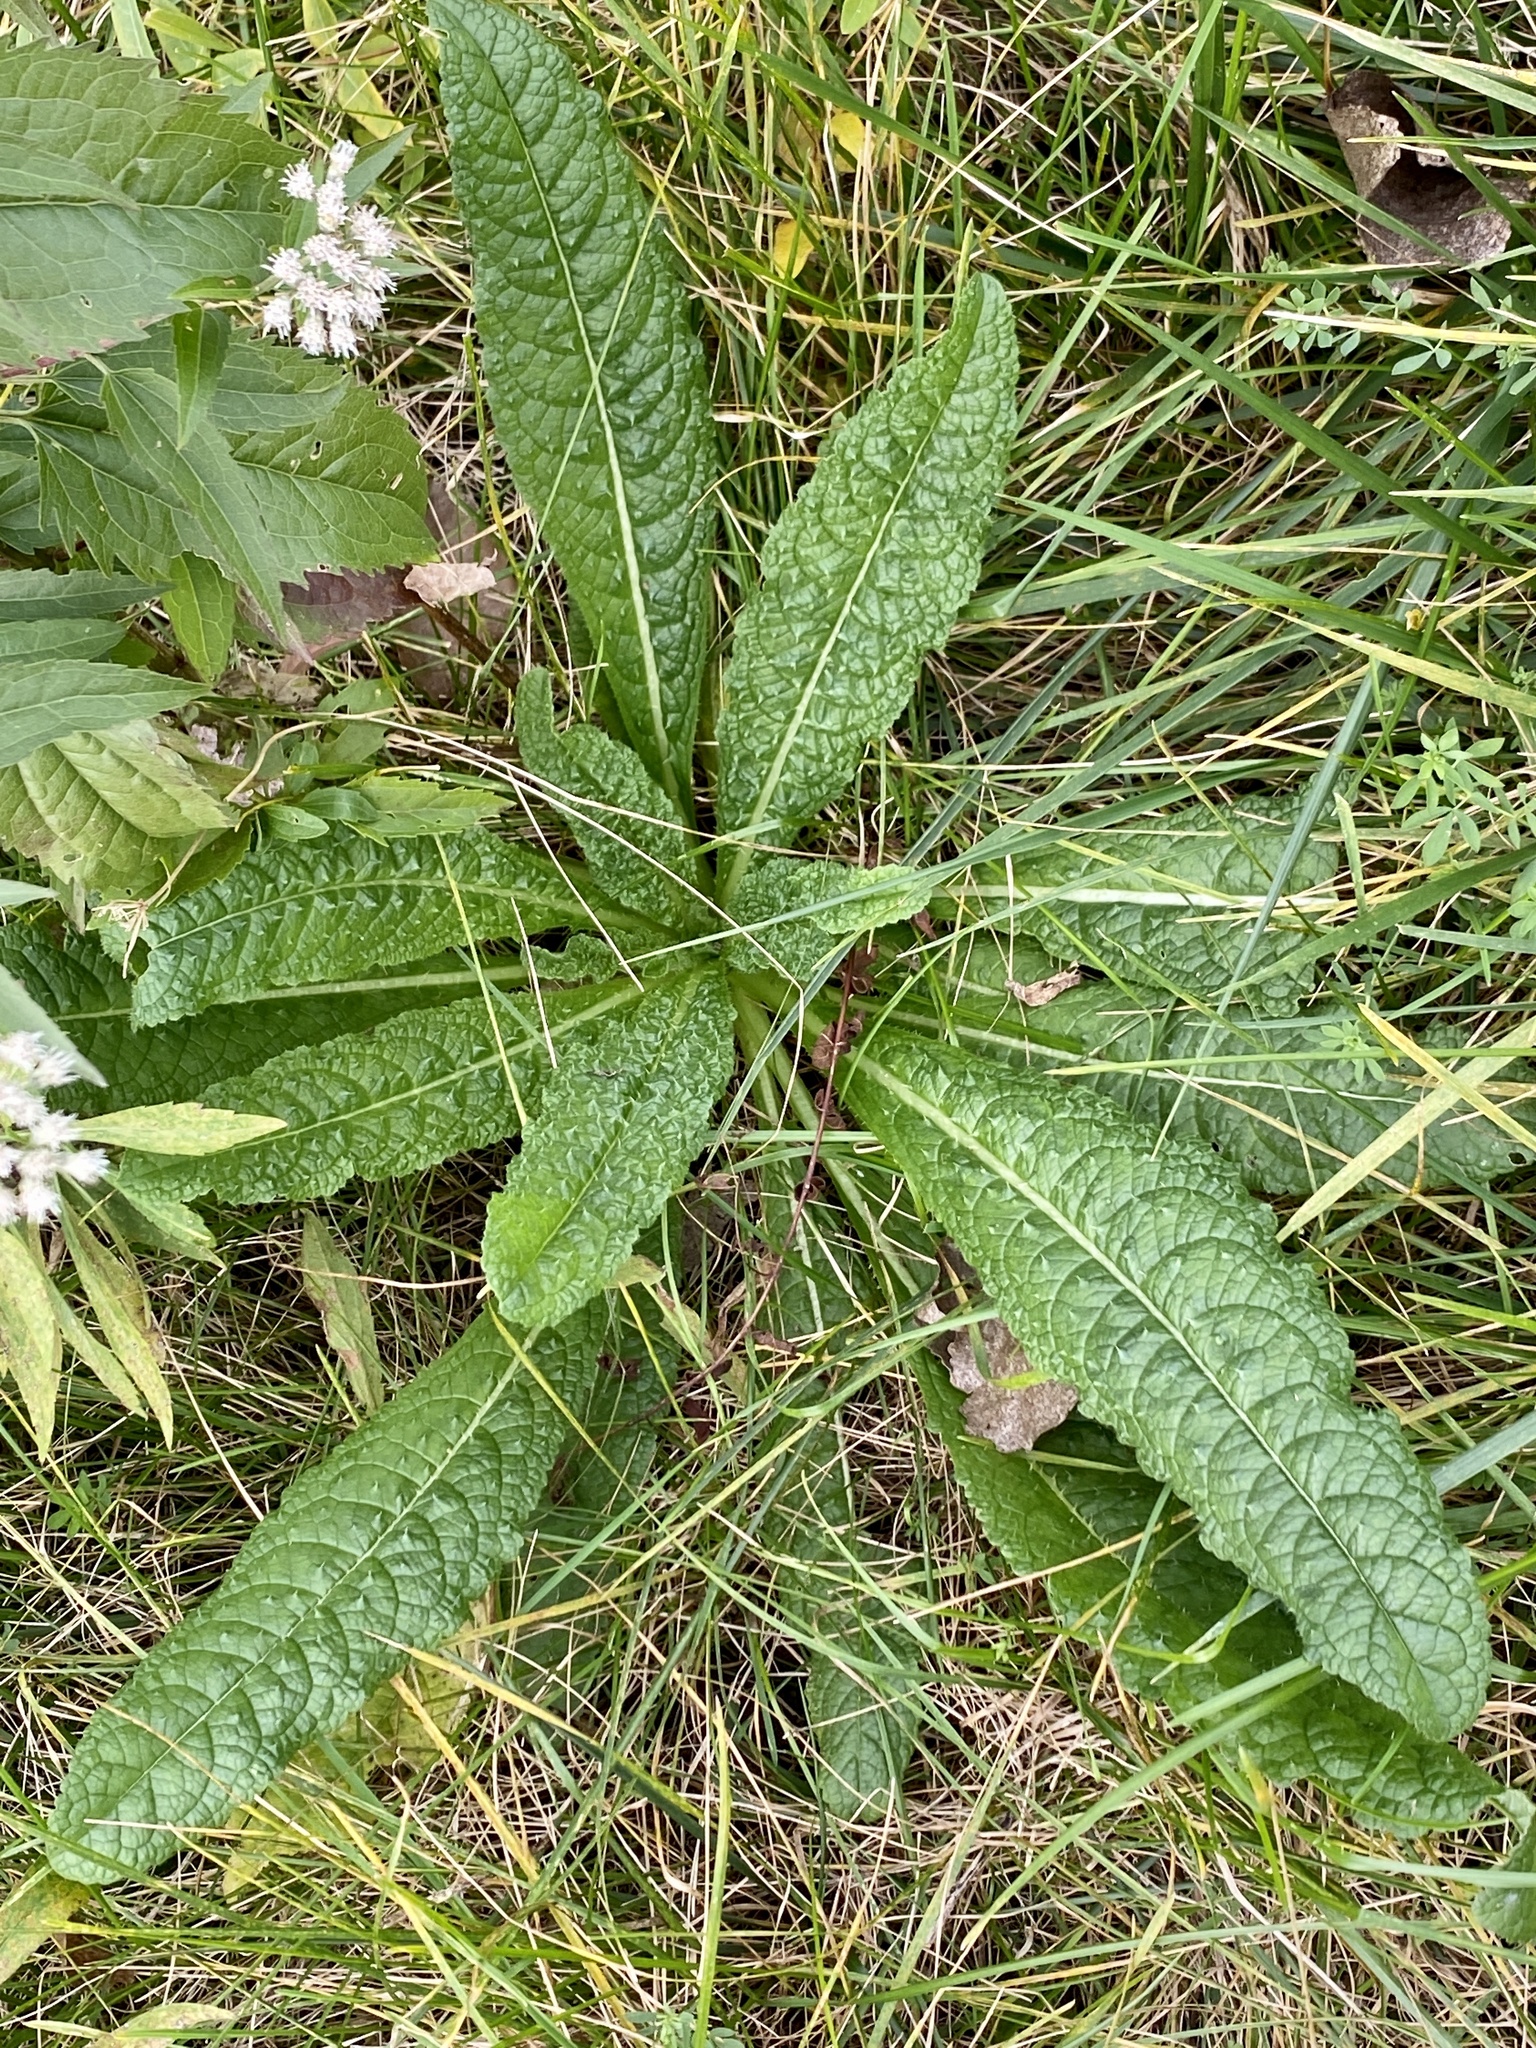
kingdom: Plantae
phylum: Tracheophyta
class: Magnoliopsida
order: Dipsacales
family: Caprifoliaceae
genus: Dipsacus
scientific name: Dipsacus fullonum
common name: Teasel
